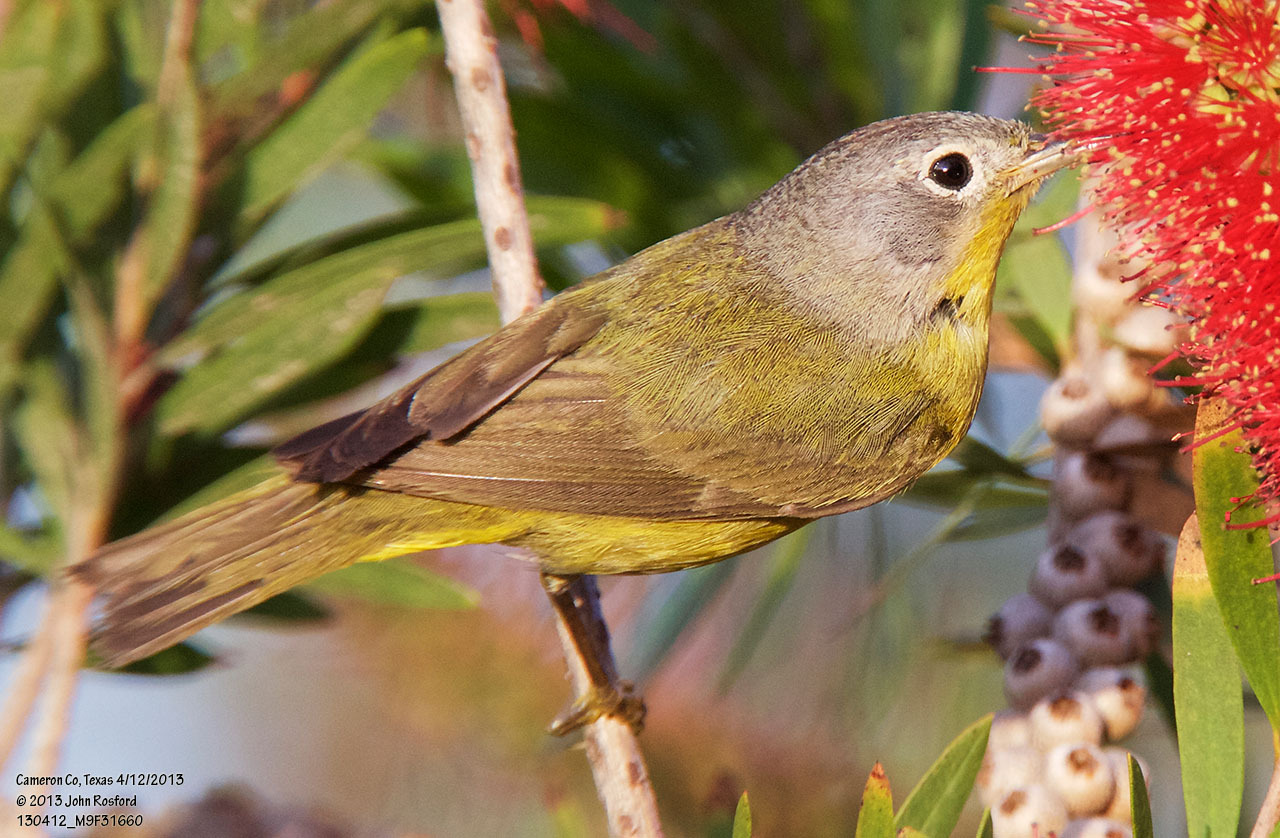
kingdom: Animalia
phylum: Chordata
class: Aves
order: Passeriformes
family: Parulidae
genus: Leiothlypis
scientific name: Leiothlypis ruficapilla
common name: Nashville warbler
